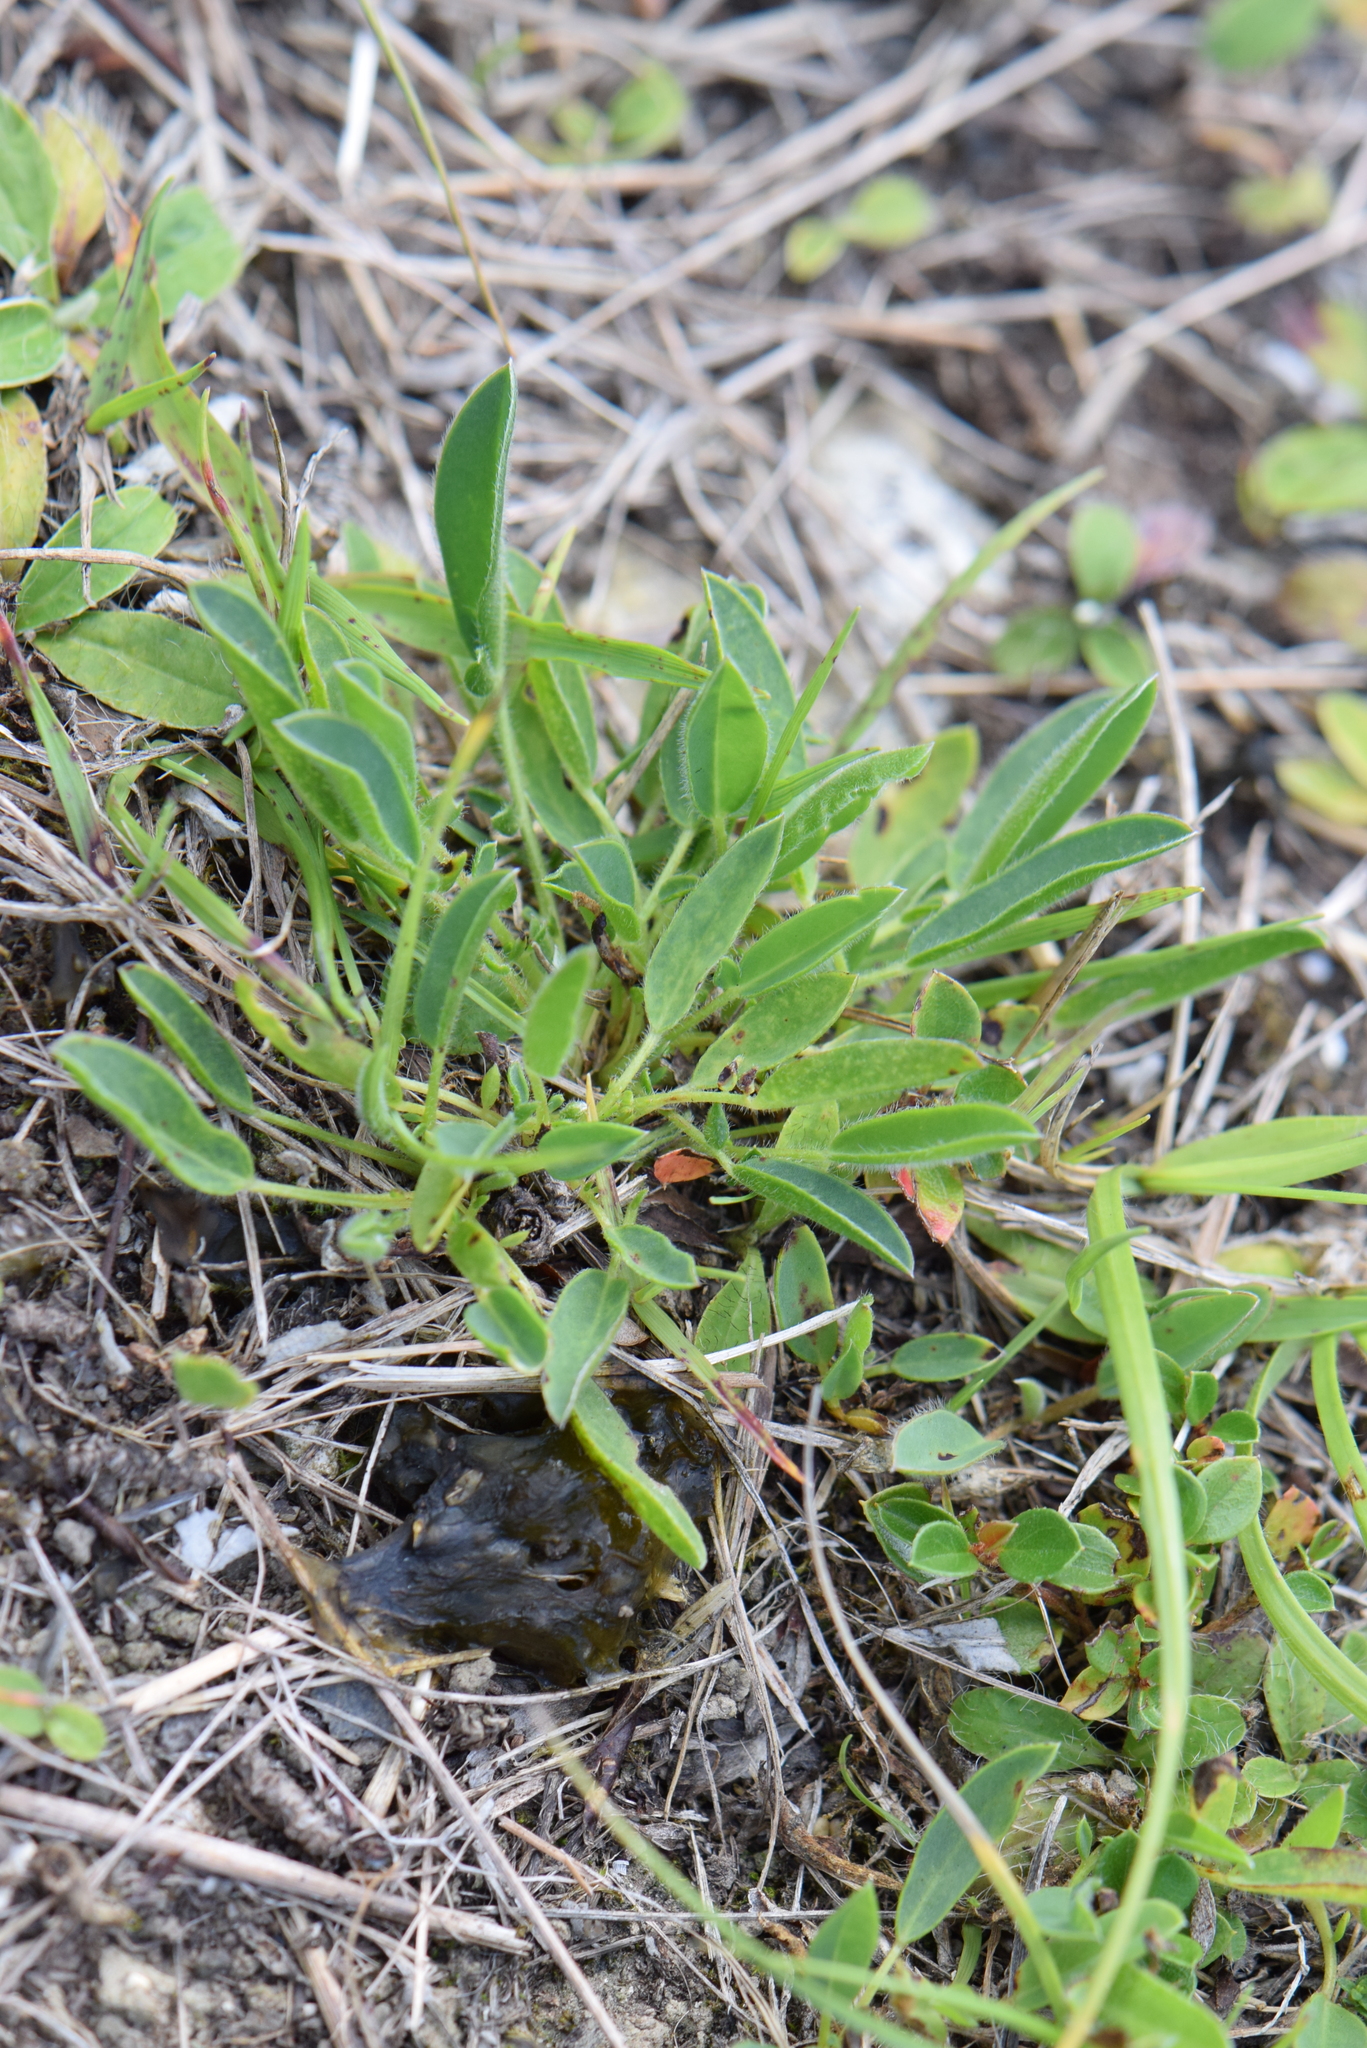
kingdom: Plantae
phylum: Tracheophyta
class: Magnoliopsida
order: Caryophyllales
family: Polygonaceae
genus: Rumex
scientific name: Rumex acetosella
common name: Common sheep sorrel
